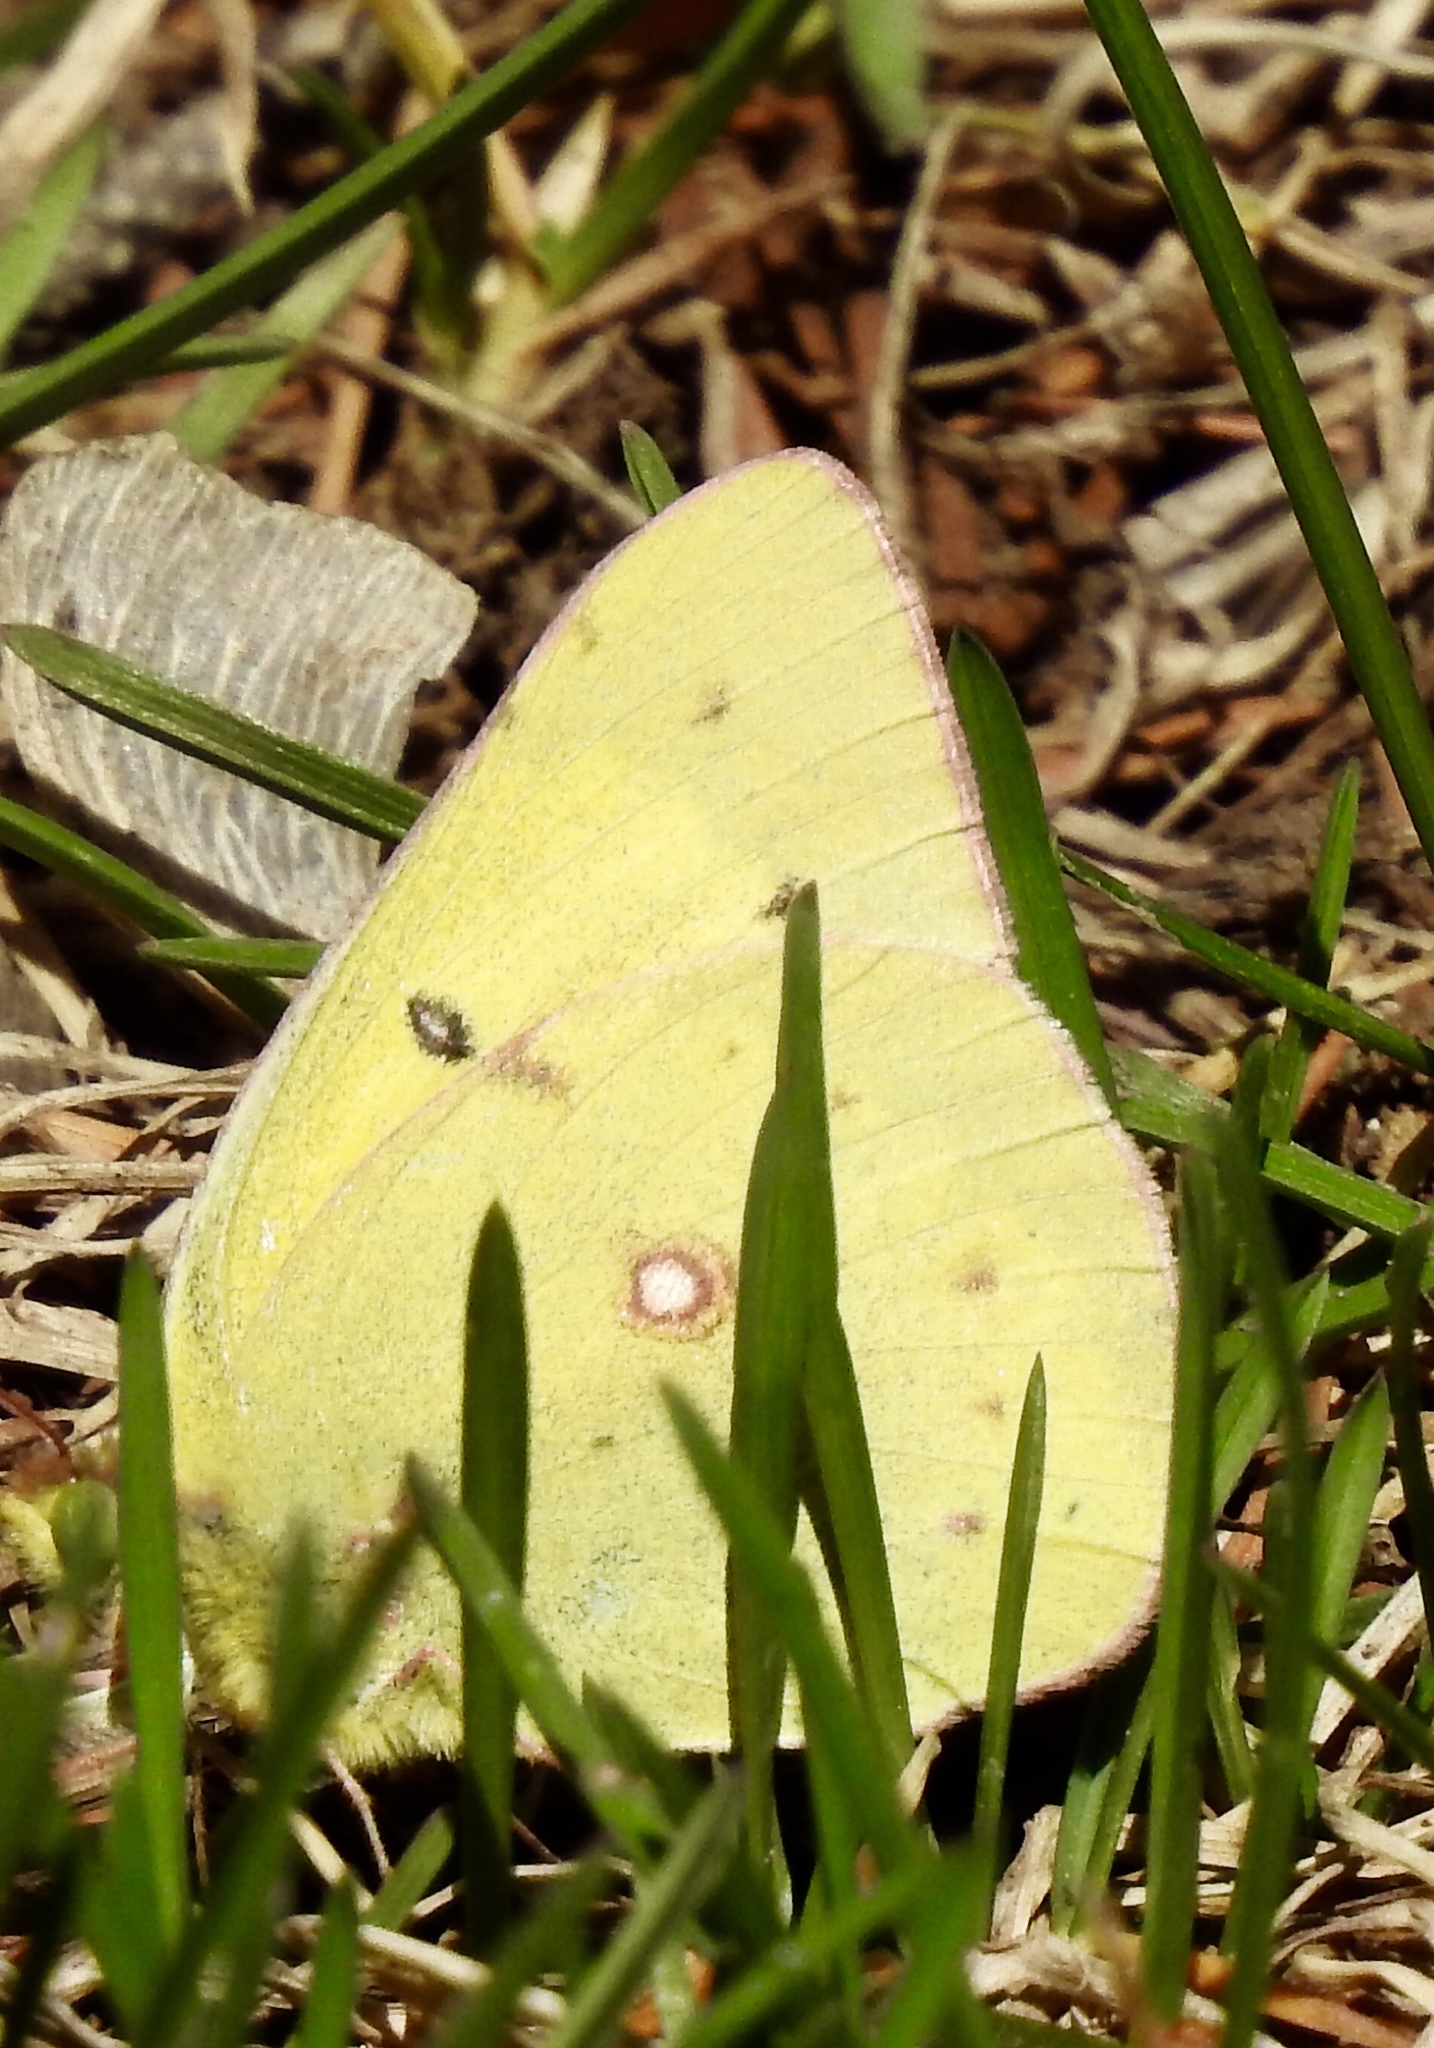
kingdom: Animalia
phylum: Arthropoda
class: Insecta
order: Lepidoptera
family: Pieridae
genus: Colias
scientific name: Colias eurytheme
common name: Alfalfa butterfly
